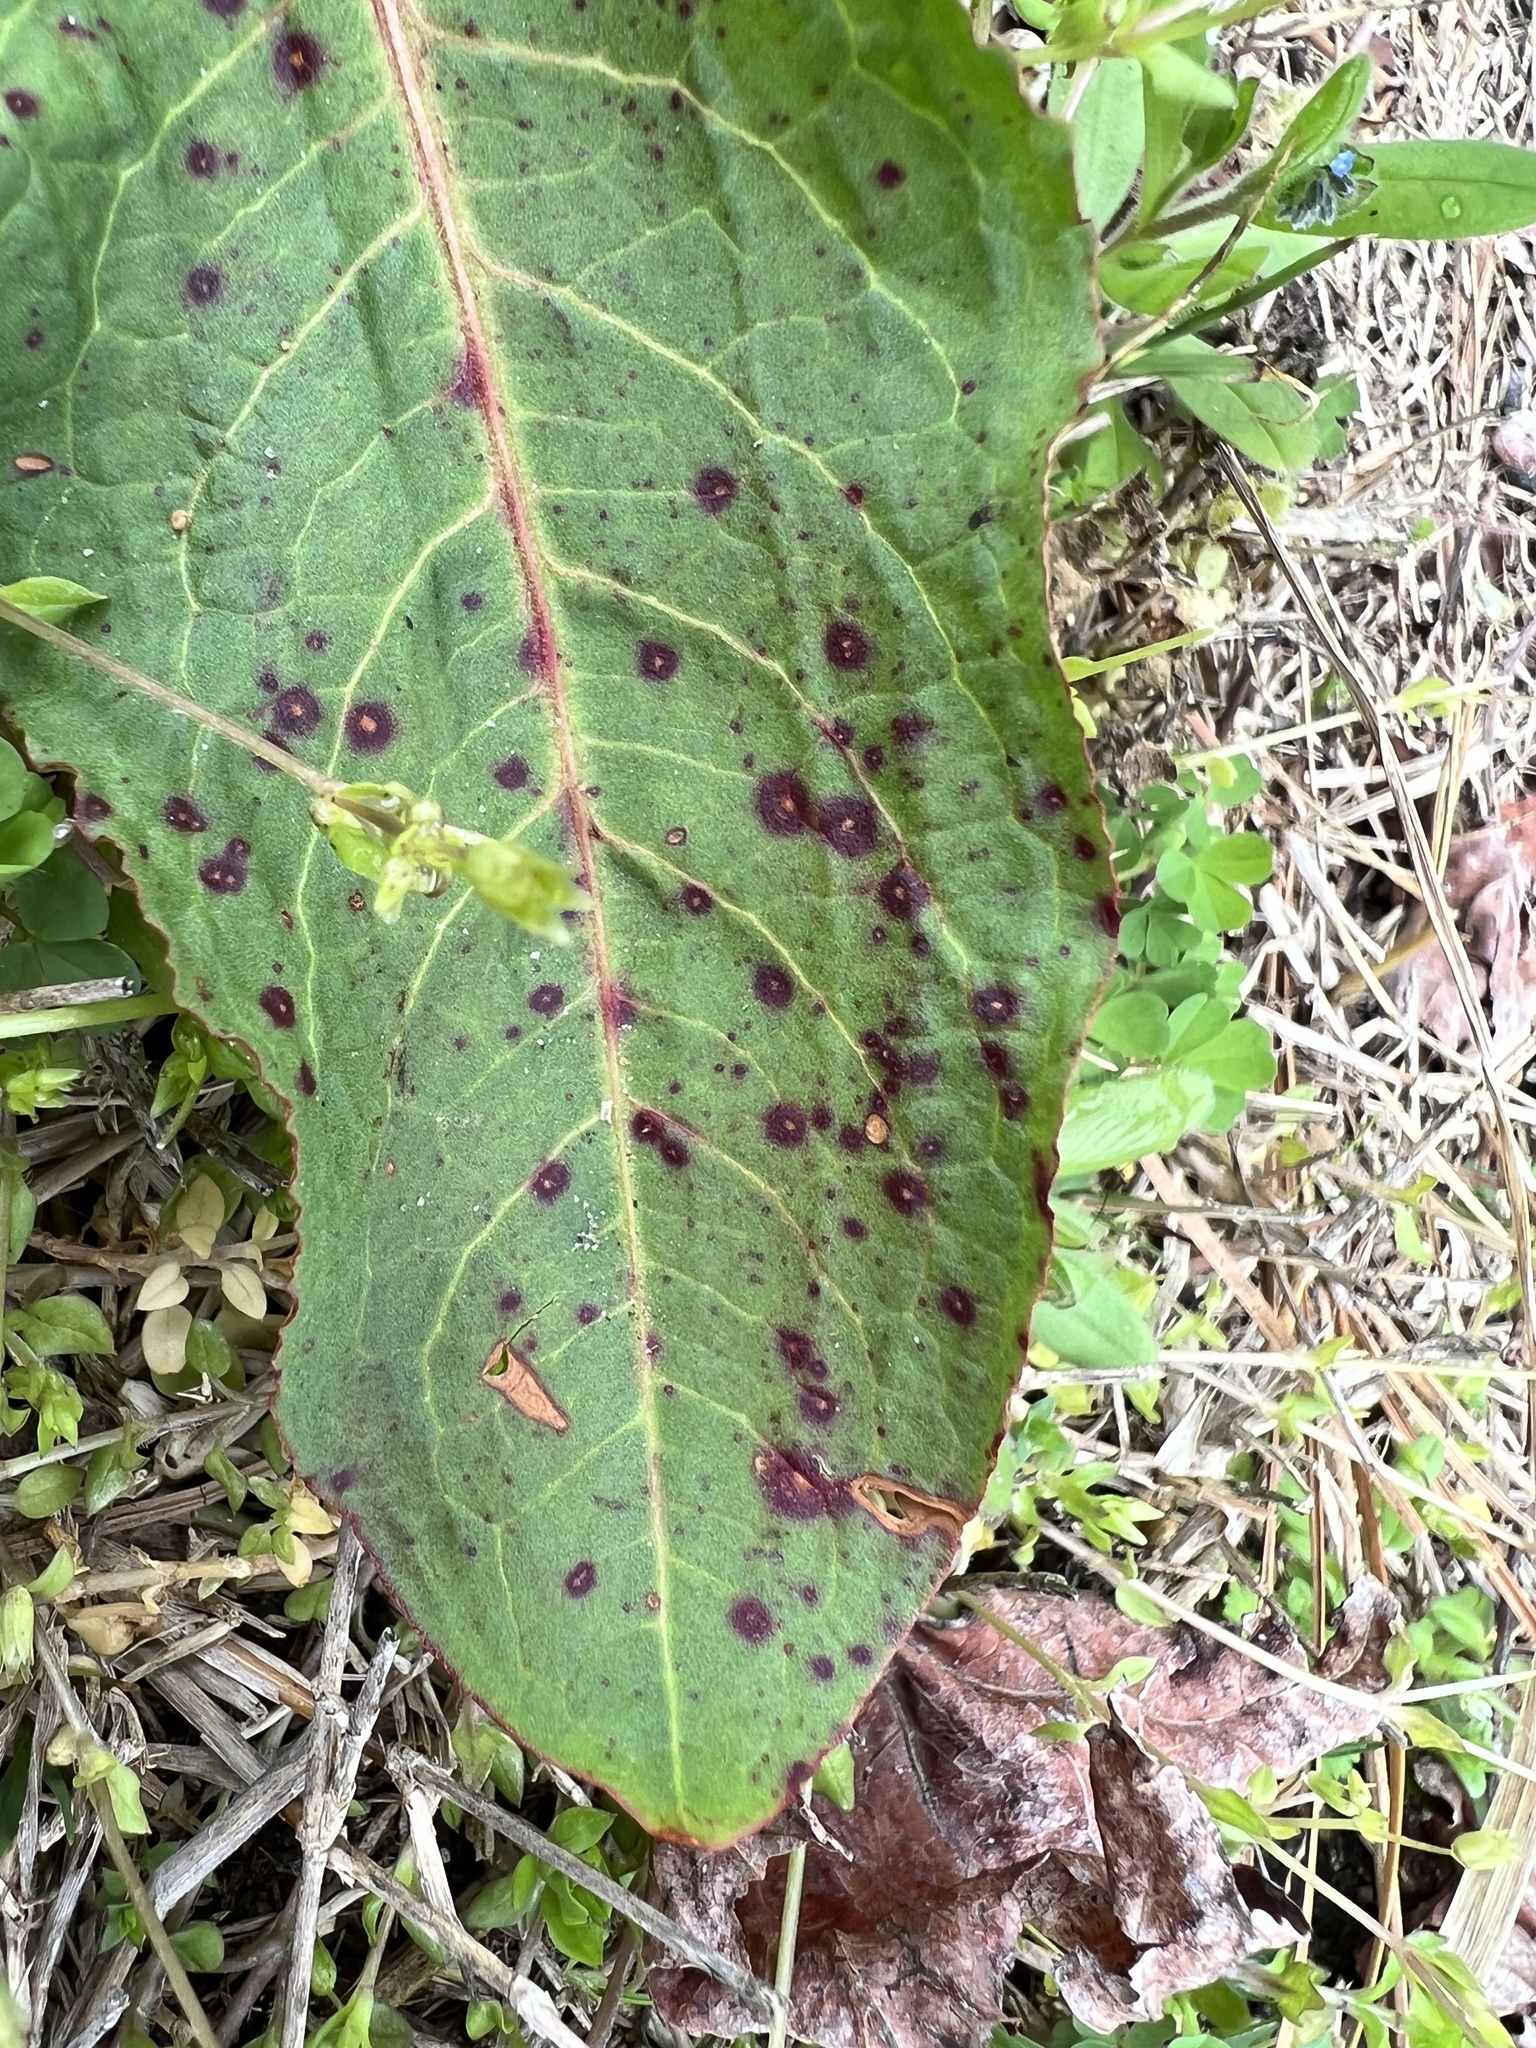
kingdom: Fungi
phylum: Ascomycota
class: Dothideomycetes
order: Mycosphaerellales
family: Mycosphaerellaceae
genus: Ramularia
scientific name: Ramularia rubella
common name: Red dock spot
